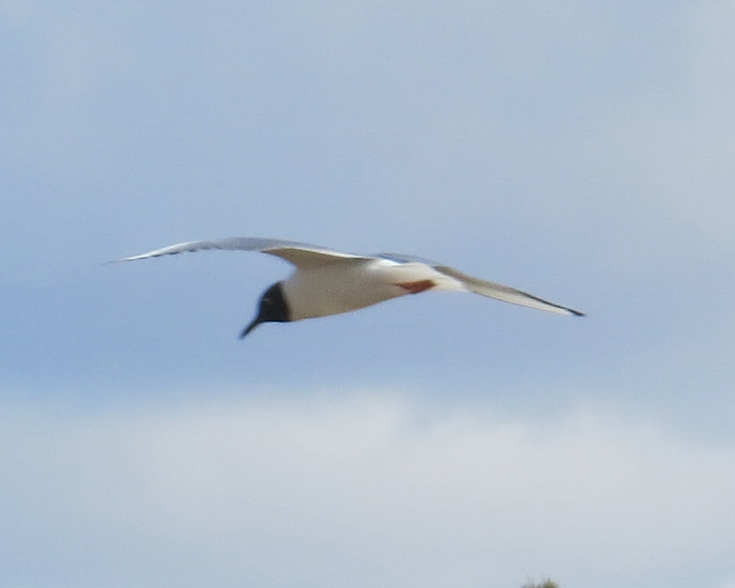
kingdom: Animalia
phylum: Chordata
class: Aves
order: Charadriiformes
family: Laridae
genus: Chroicocephalus
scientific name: Chroicocephalus philadelphia
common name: Bonaparte's gull
